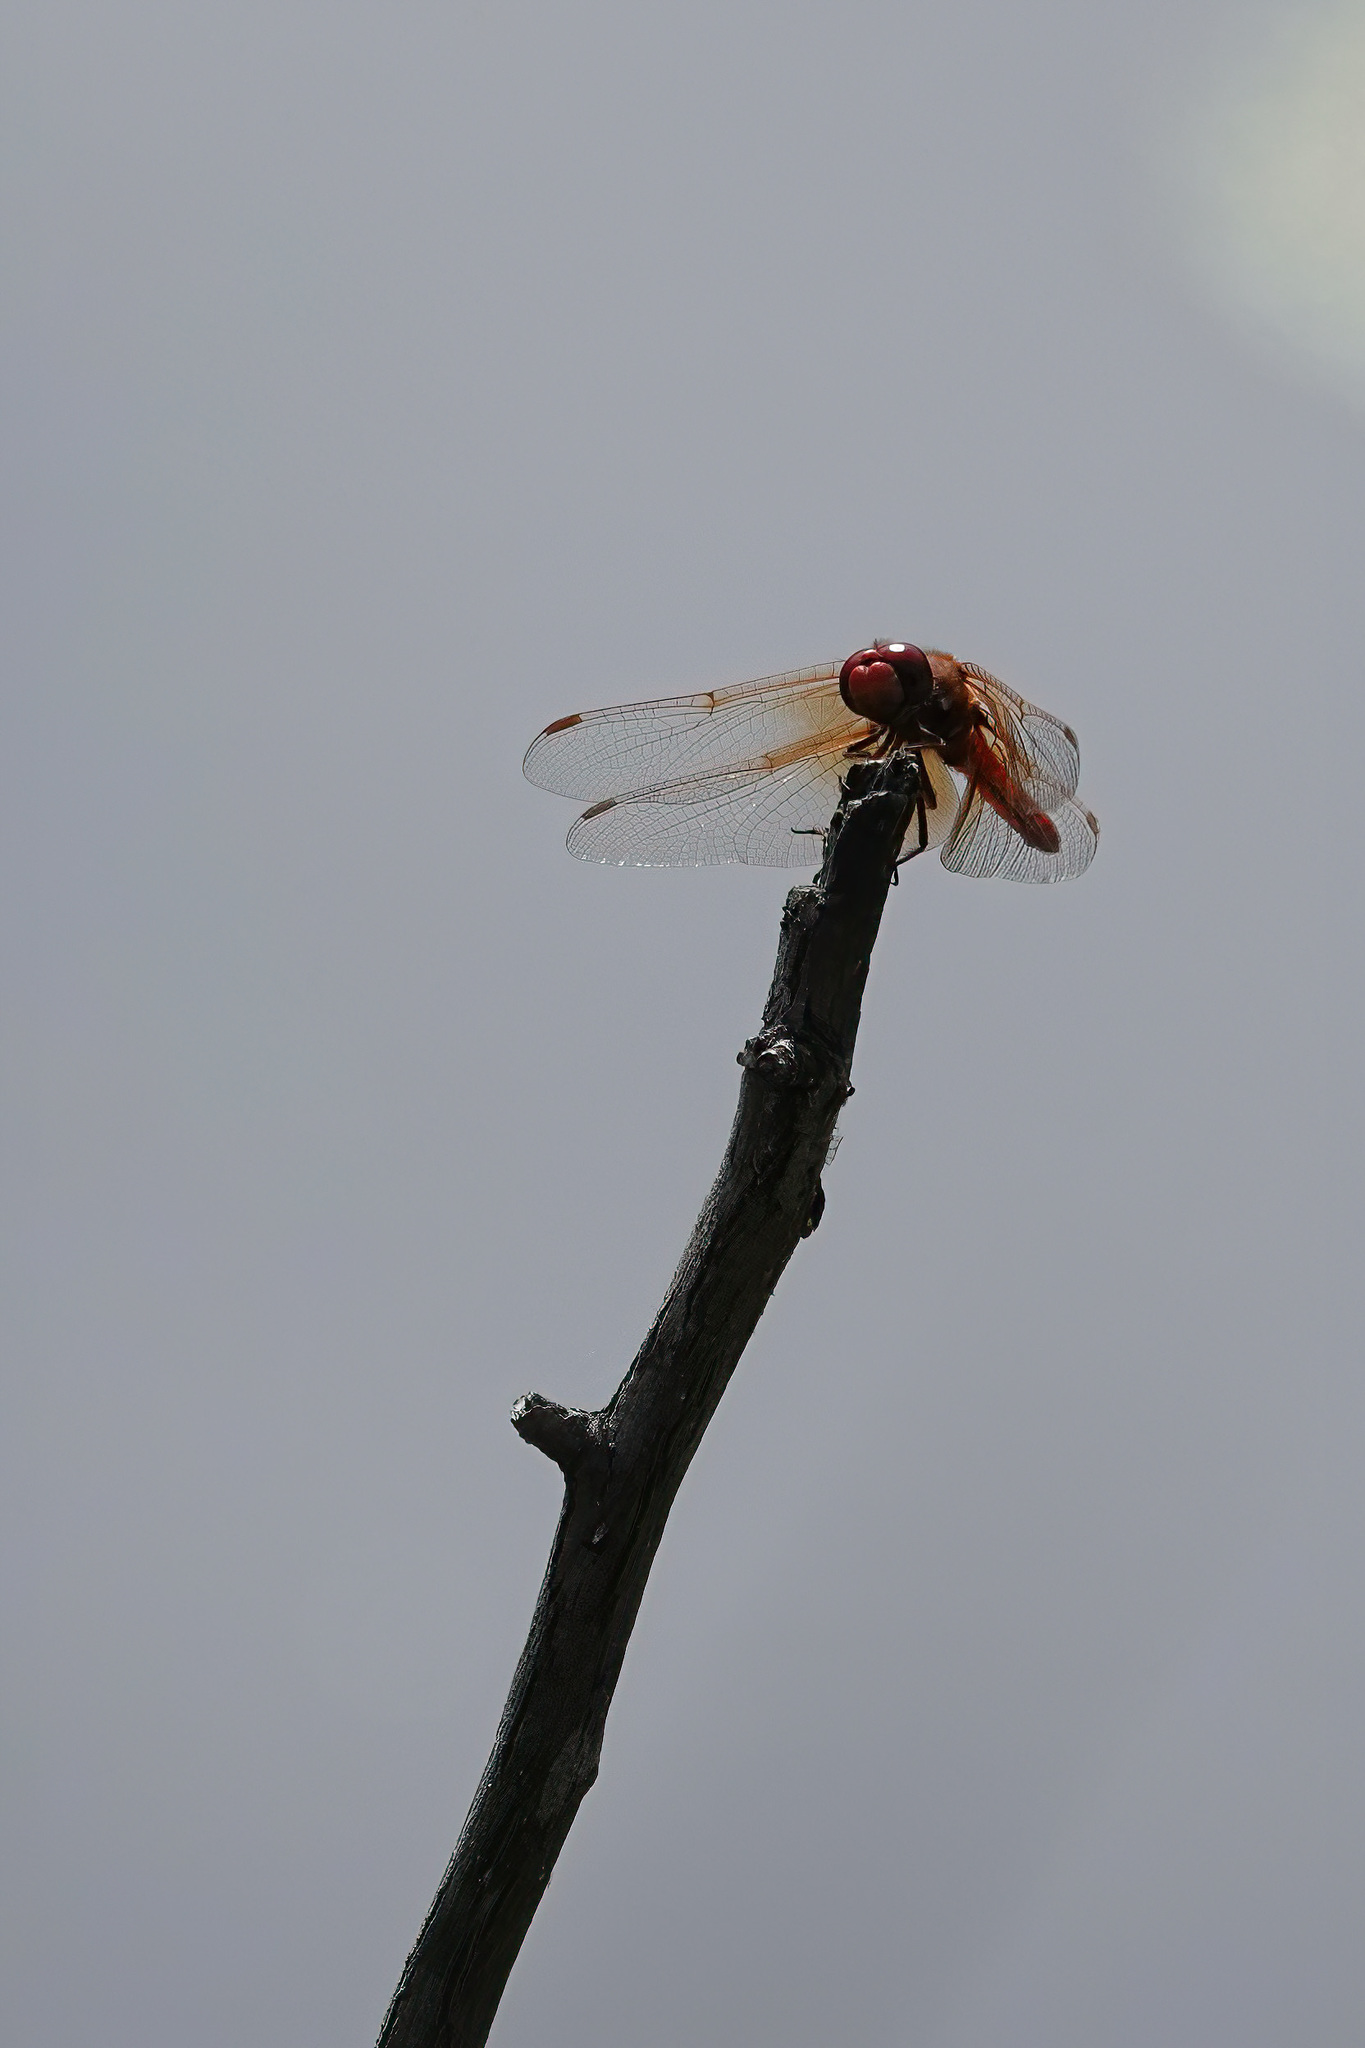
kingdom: Animalia
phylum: Arthropoda
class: Insecta
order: Odonata
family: Libellulidae
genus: Sympetrum
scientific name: Sympetrum illotum
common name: Cardinal meadowhawk
